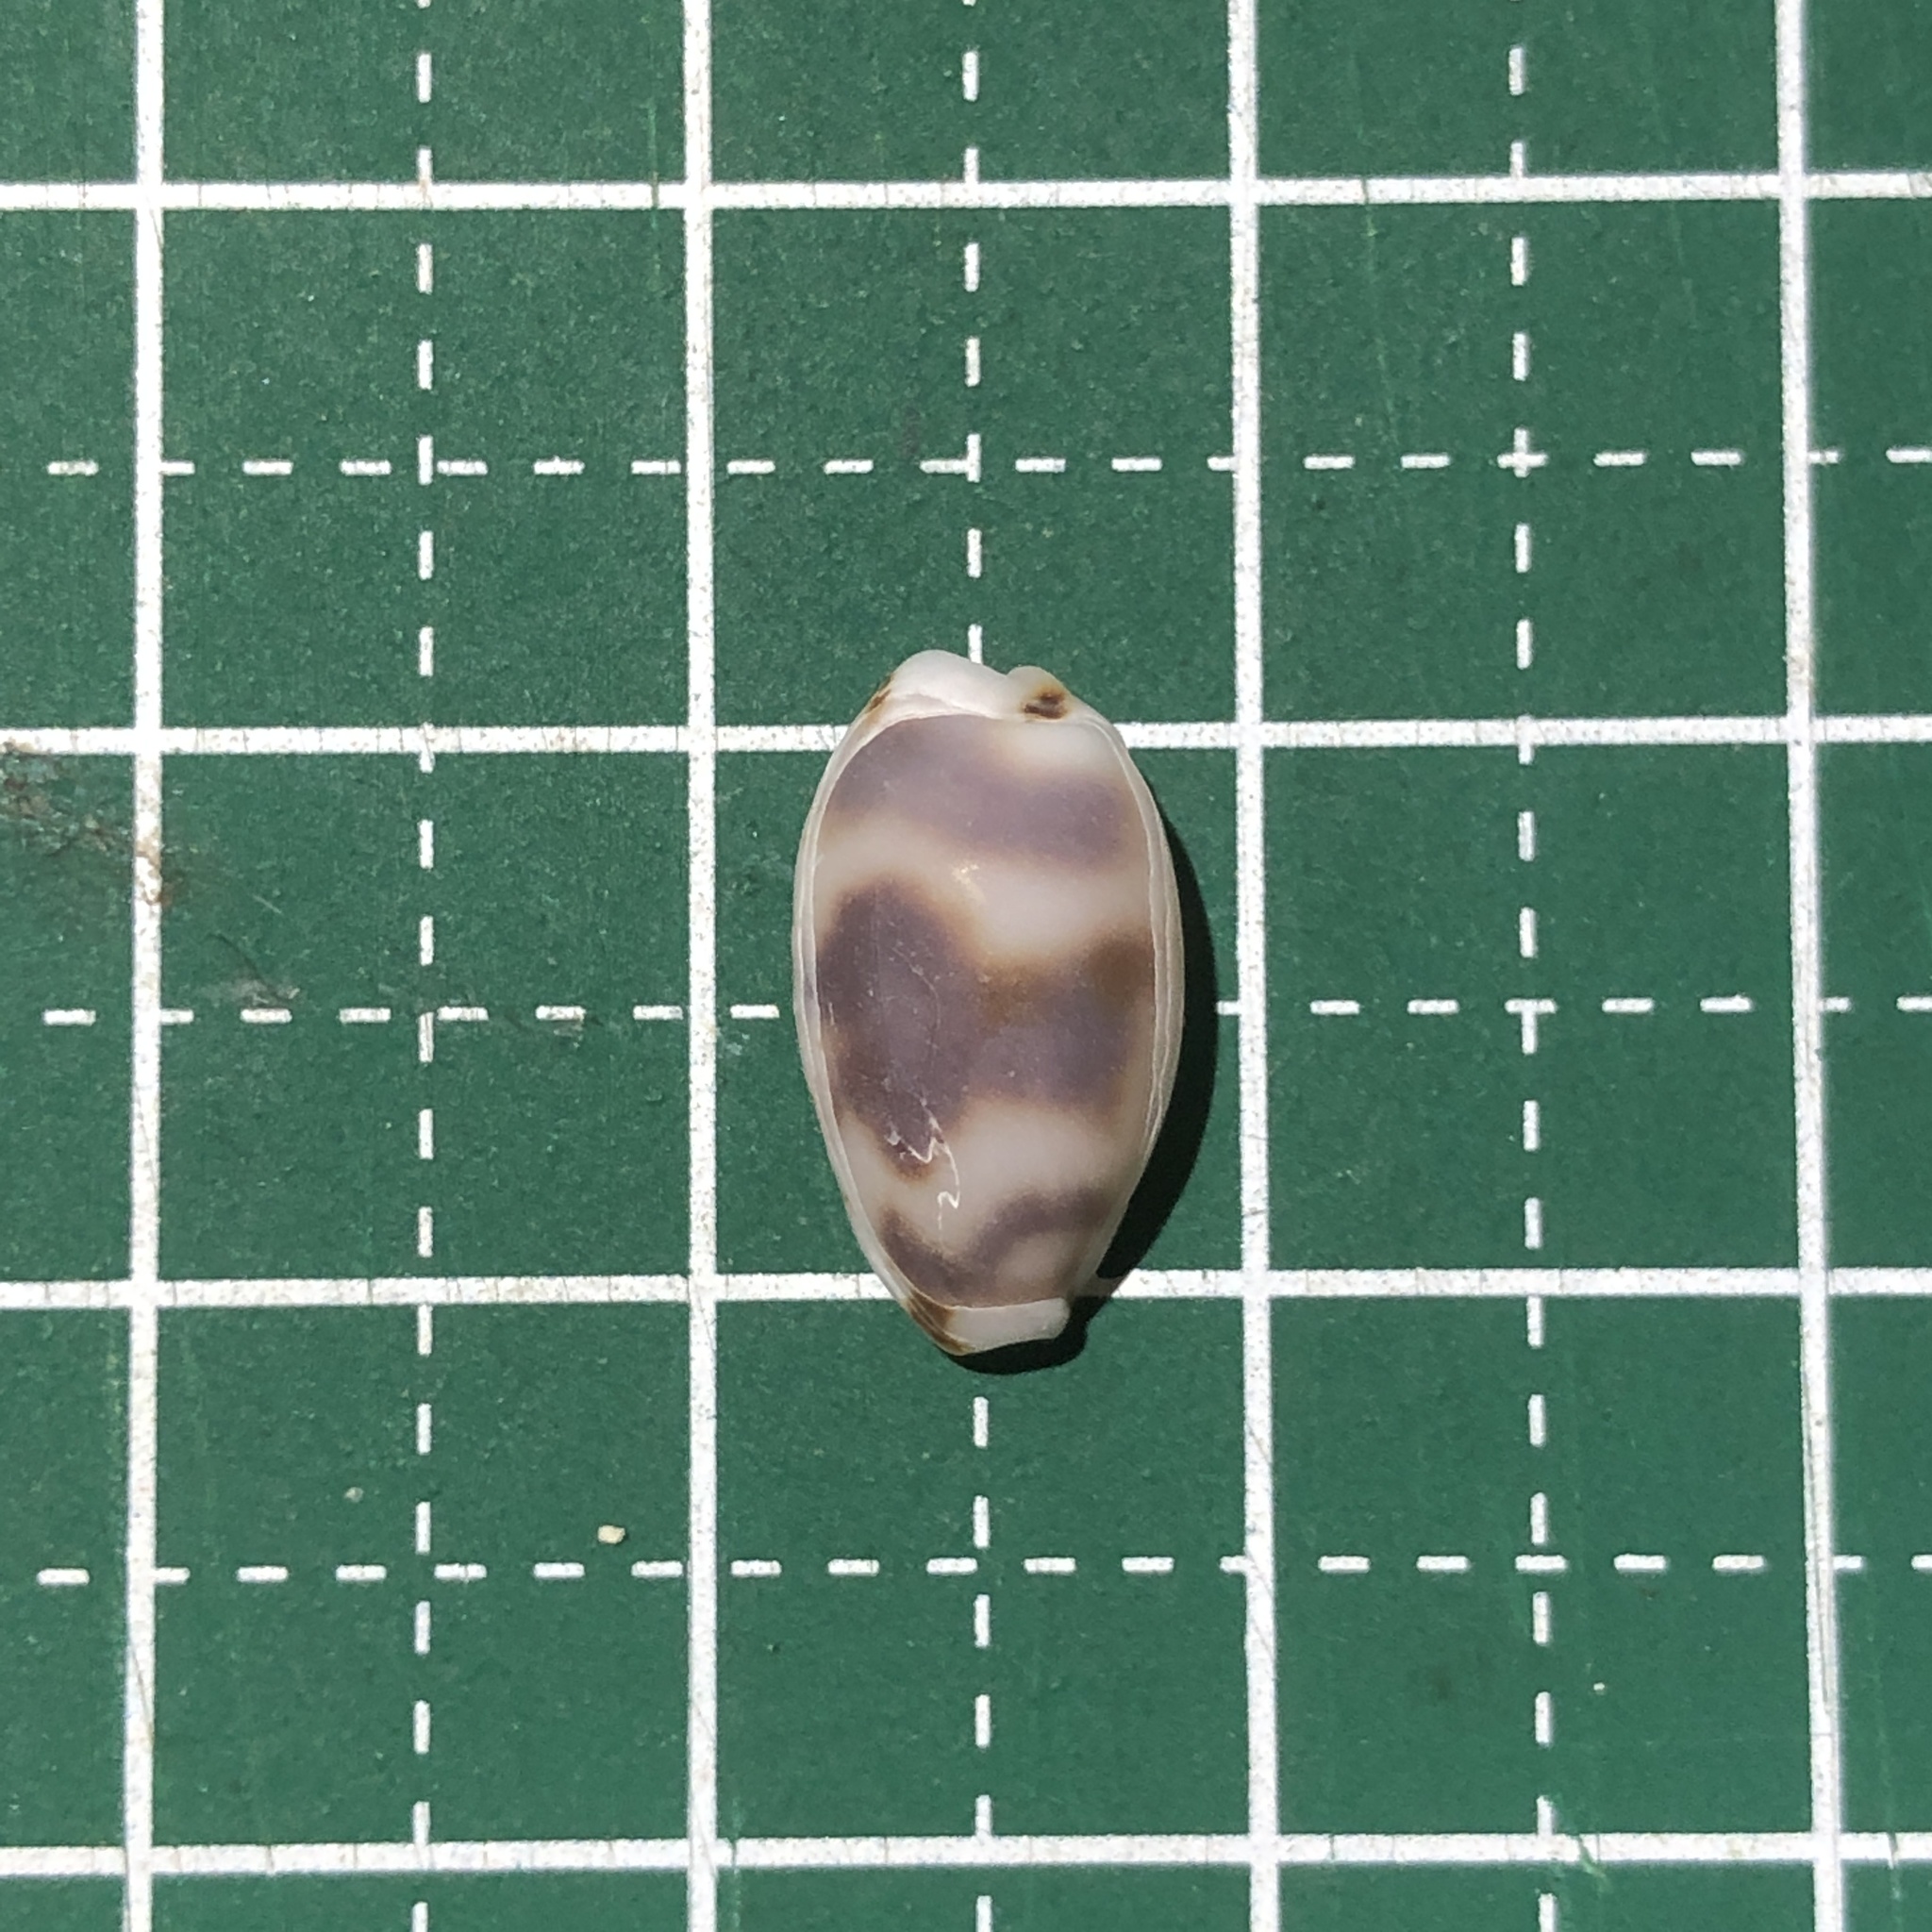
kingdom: Animalia
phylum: Mollusca
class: Gastropoda
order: Littorinimorpha
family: Cypraeidae
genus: Bistolida
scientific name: Bistolida kieneri
